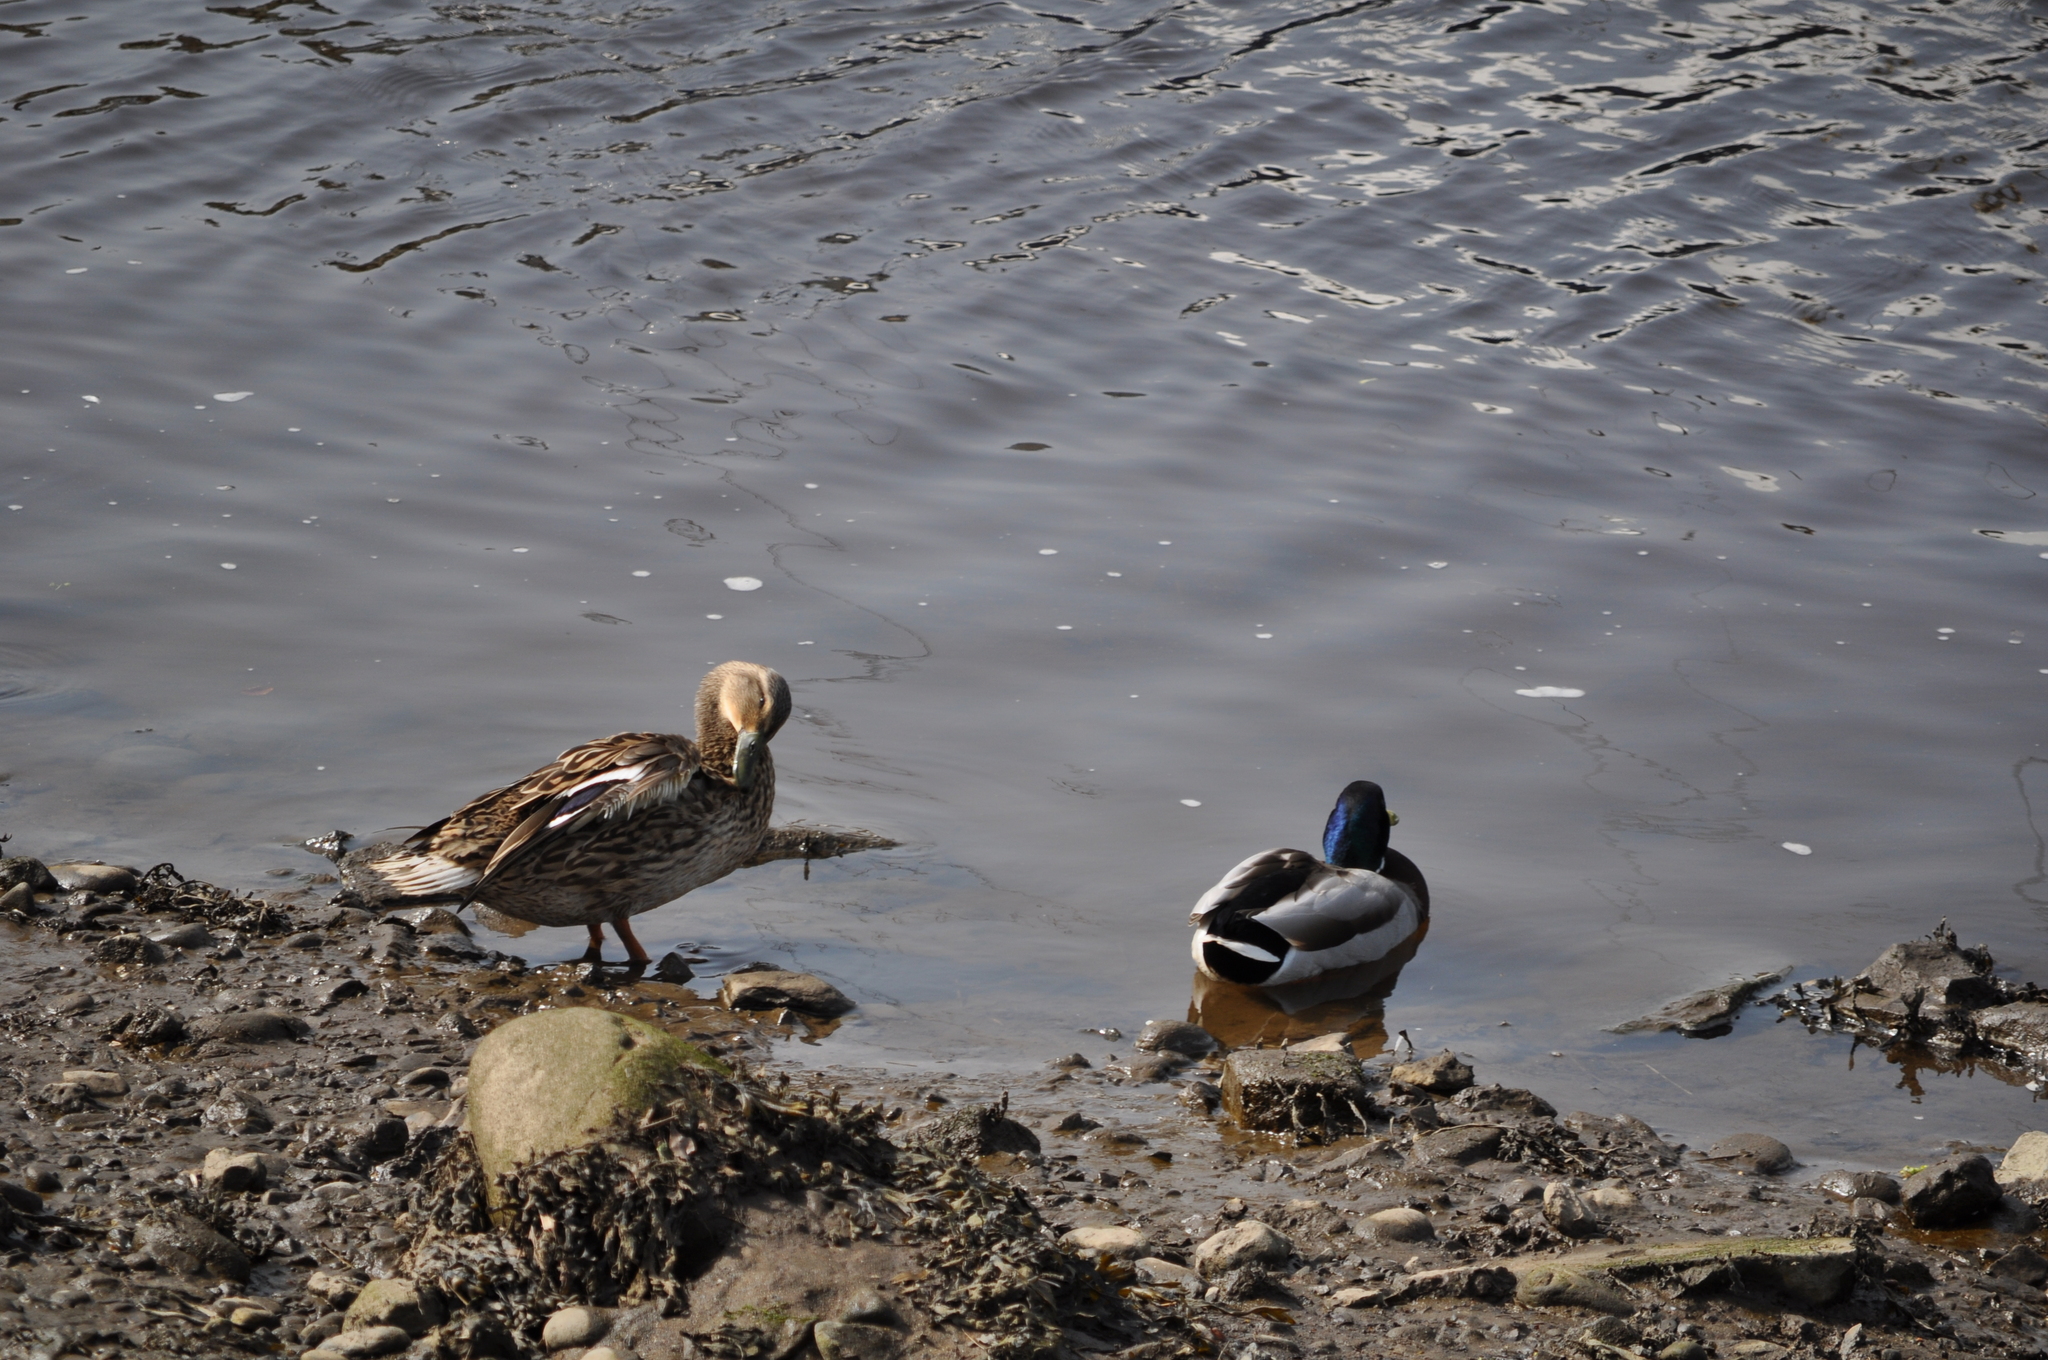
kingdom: Animalia
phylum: Chordata
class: Aves
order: Anseriformes
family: Anatidae
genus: Anas
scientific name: Anas platyrhynchos
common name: Mallard
